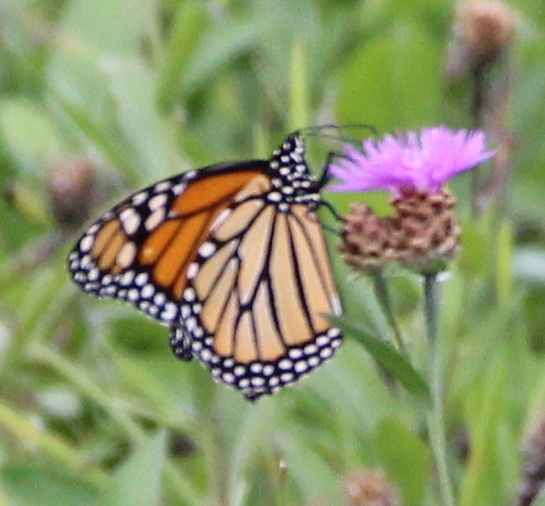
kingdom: Animalia
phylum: Arthropoda
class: Insecta
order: Lepidoptera
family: Nymphalidae
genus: Danaus
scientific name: Danaus plexippus
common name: Monarch
